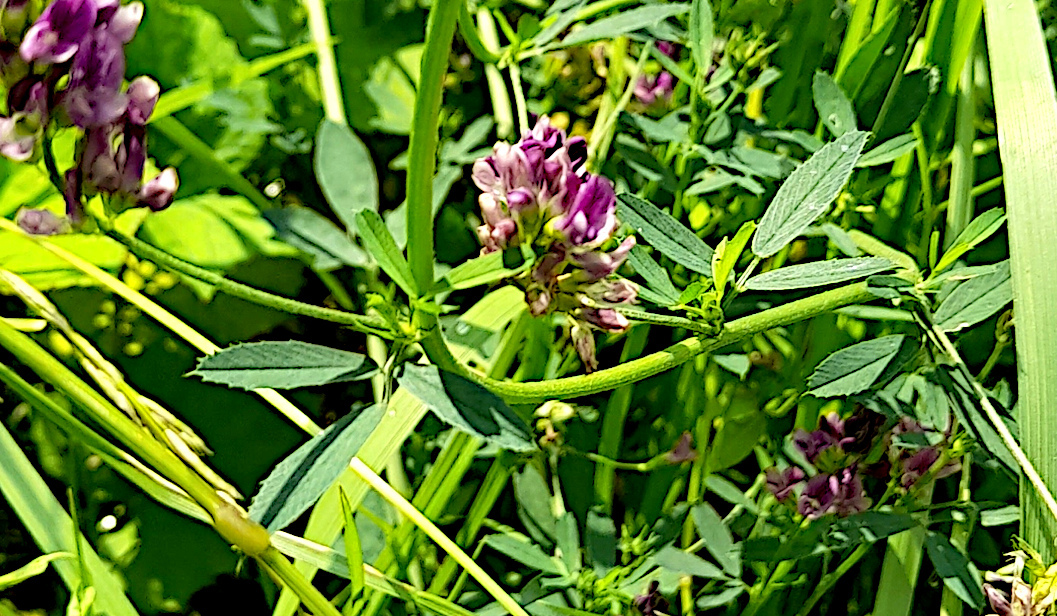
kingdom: Plantae
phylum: Tracheophyta
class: Magnoliopsida
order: Fabales
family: Fabaceae
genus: Medicago
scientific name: Medicago sativa
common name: Alfalfa
